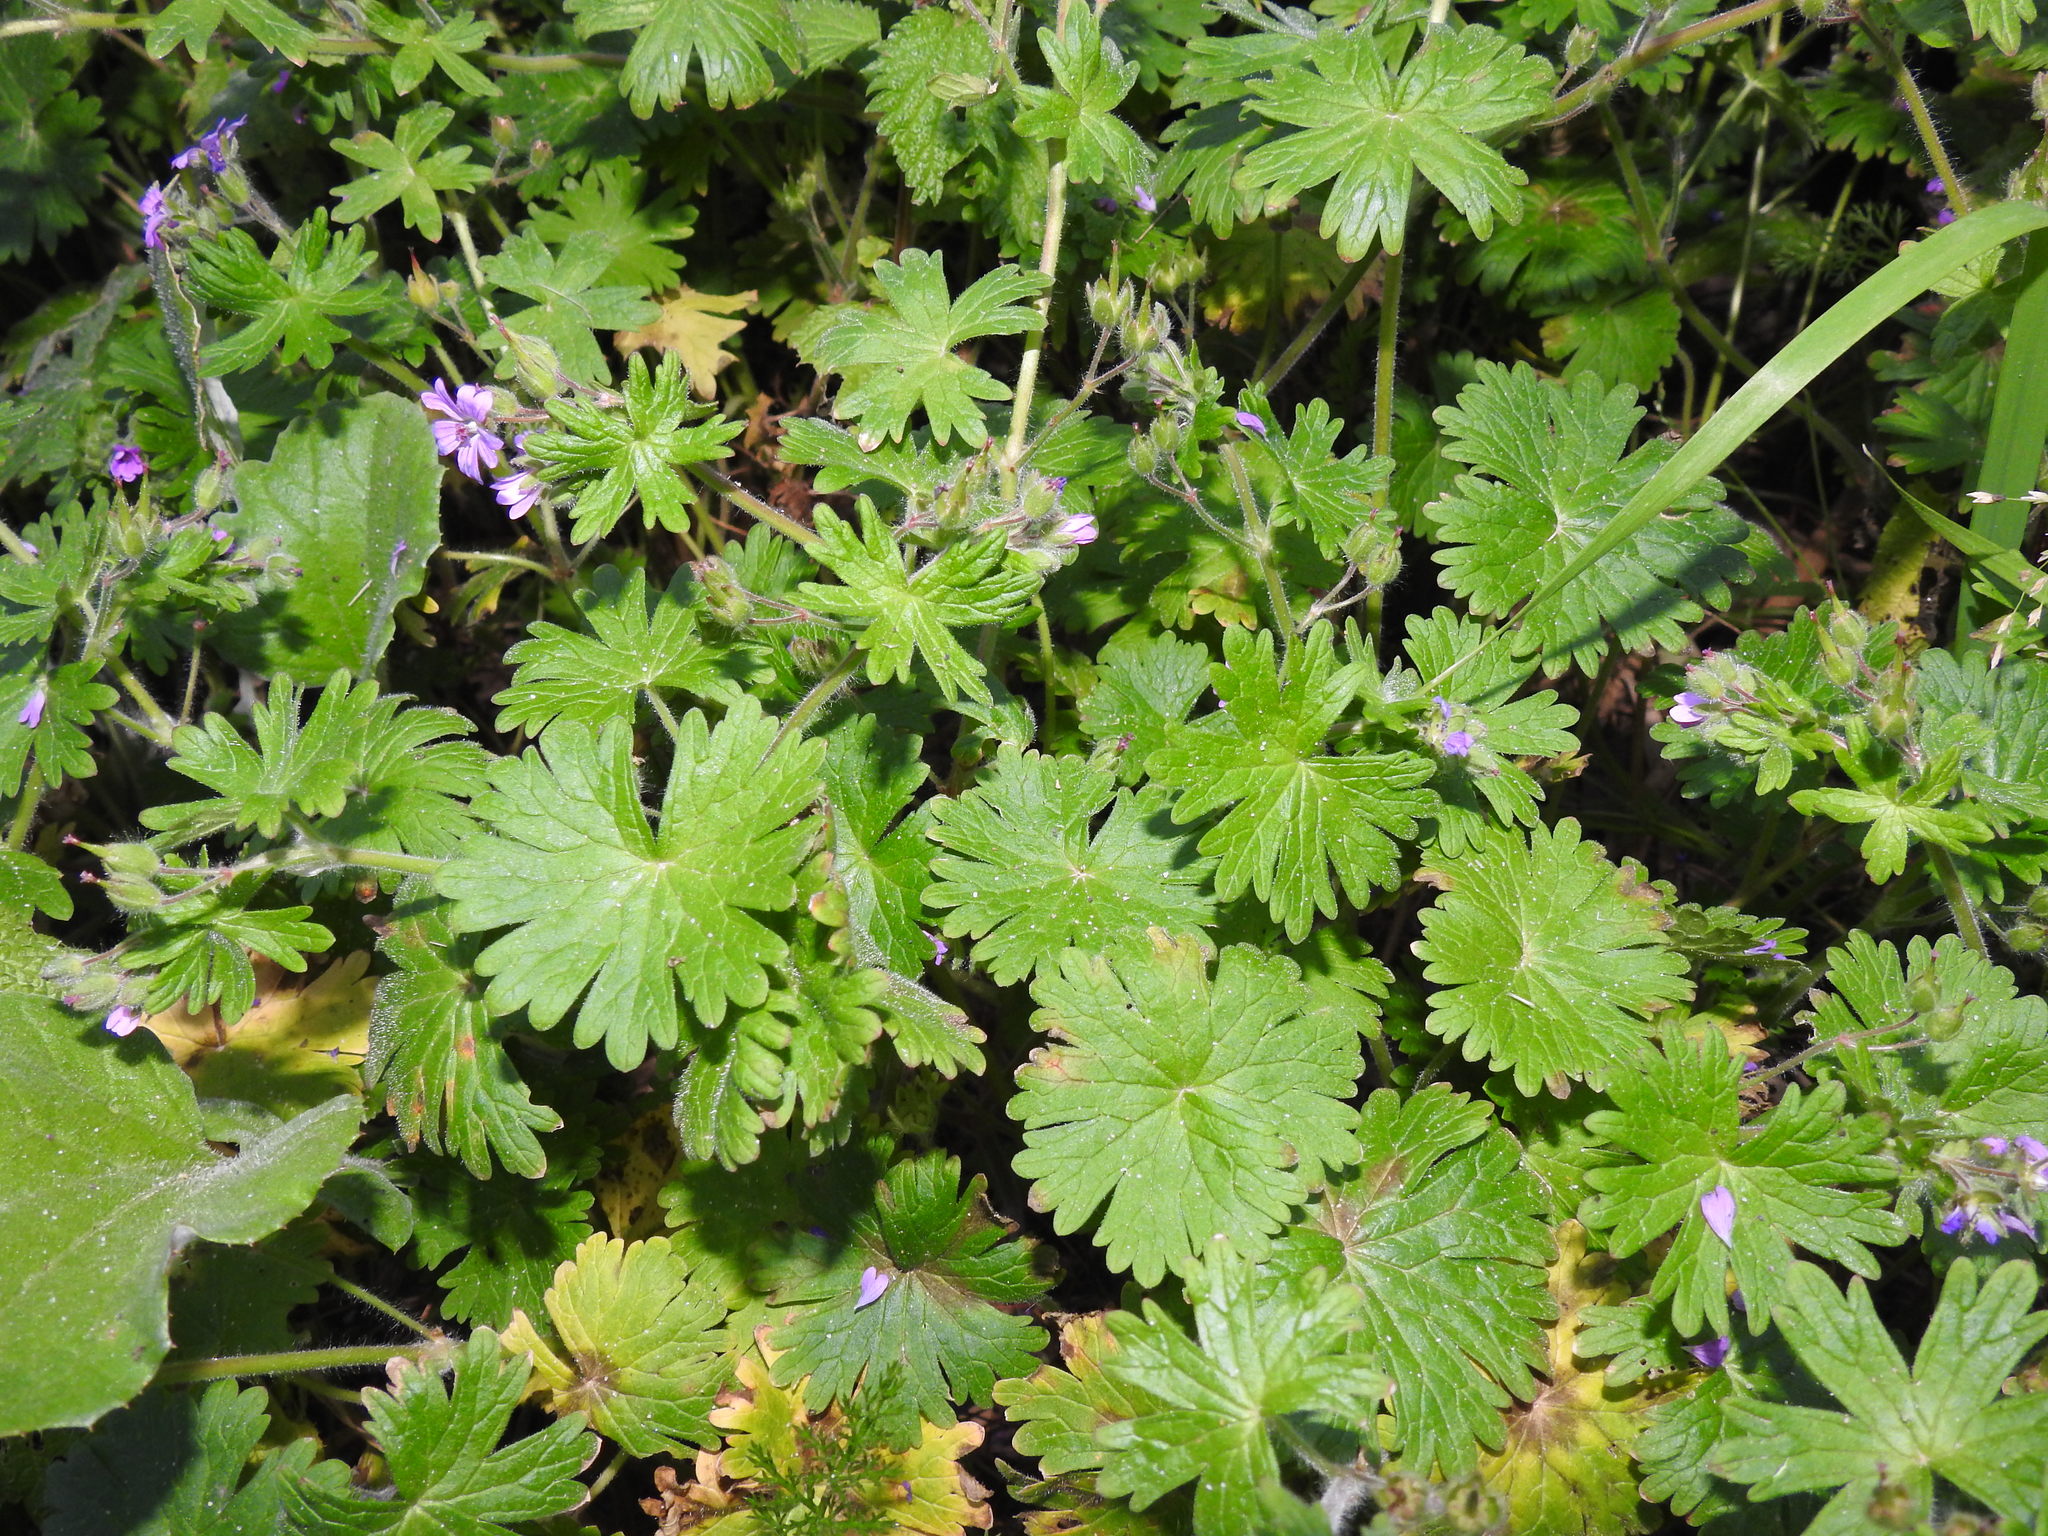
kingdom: Plantae
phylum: Tracheophyta
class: Magnoliopsida
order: Geraniales
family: Geraniaceae
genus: Geranium
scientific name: Geranium molle
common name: Dove's-foot crane's-bill
